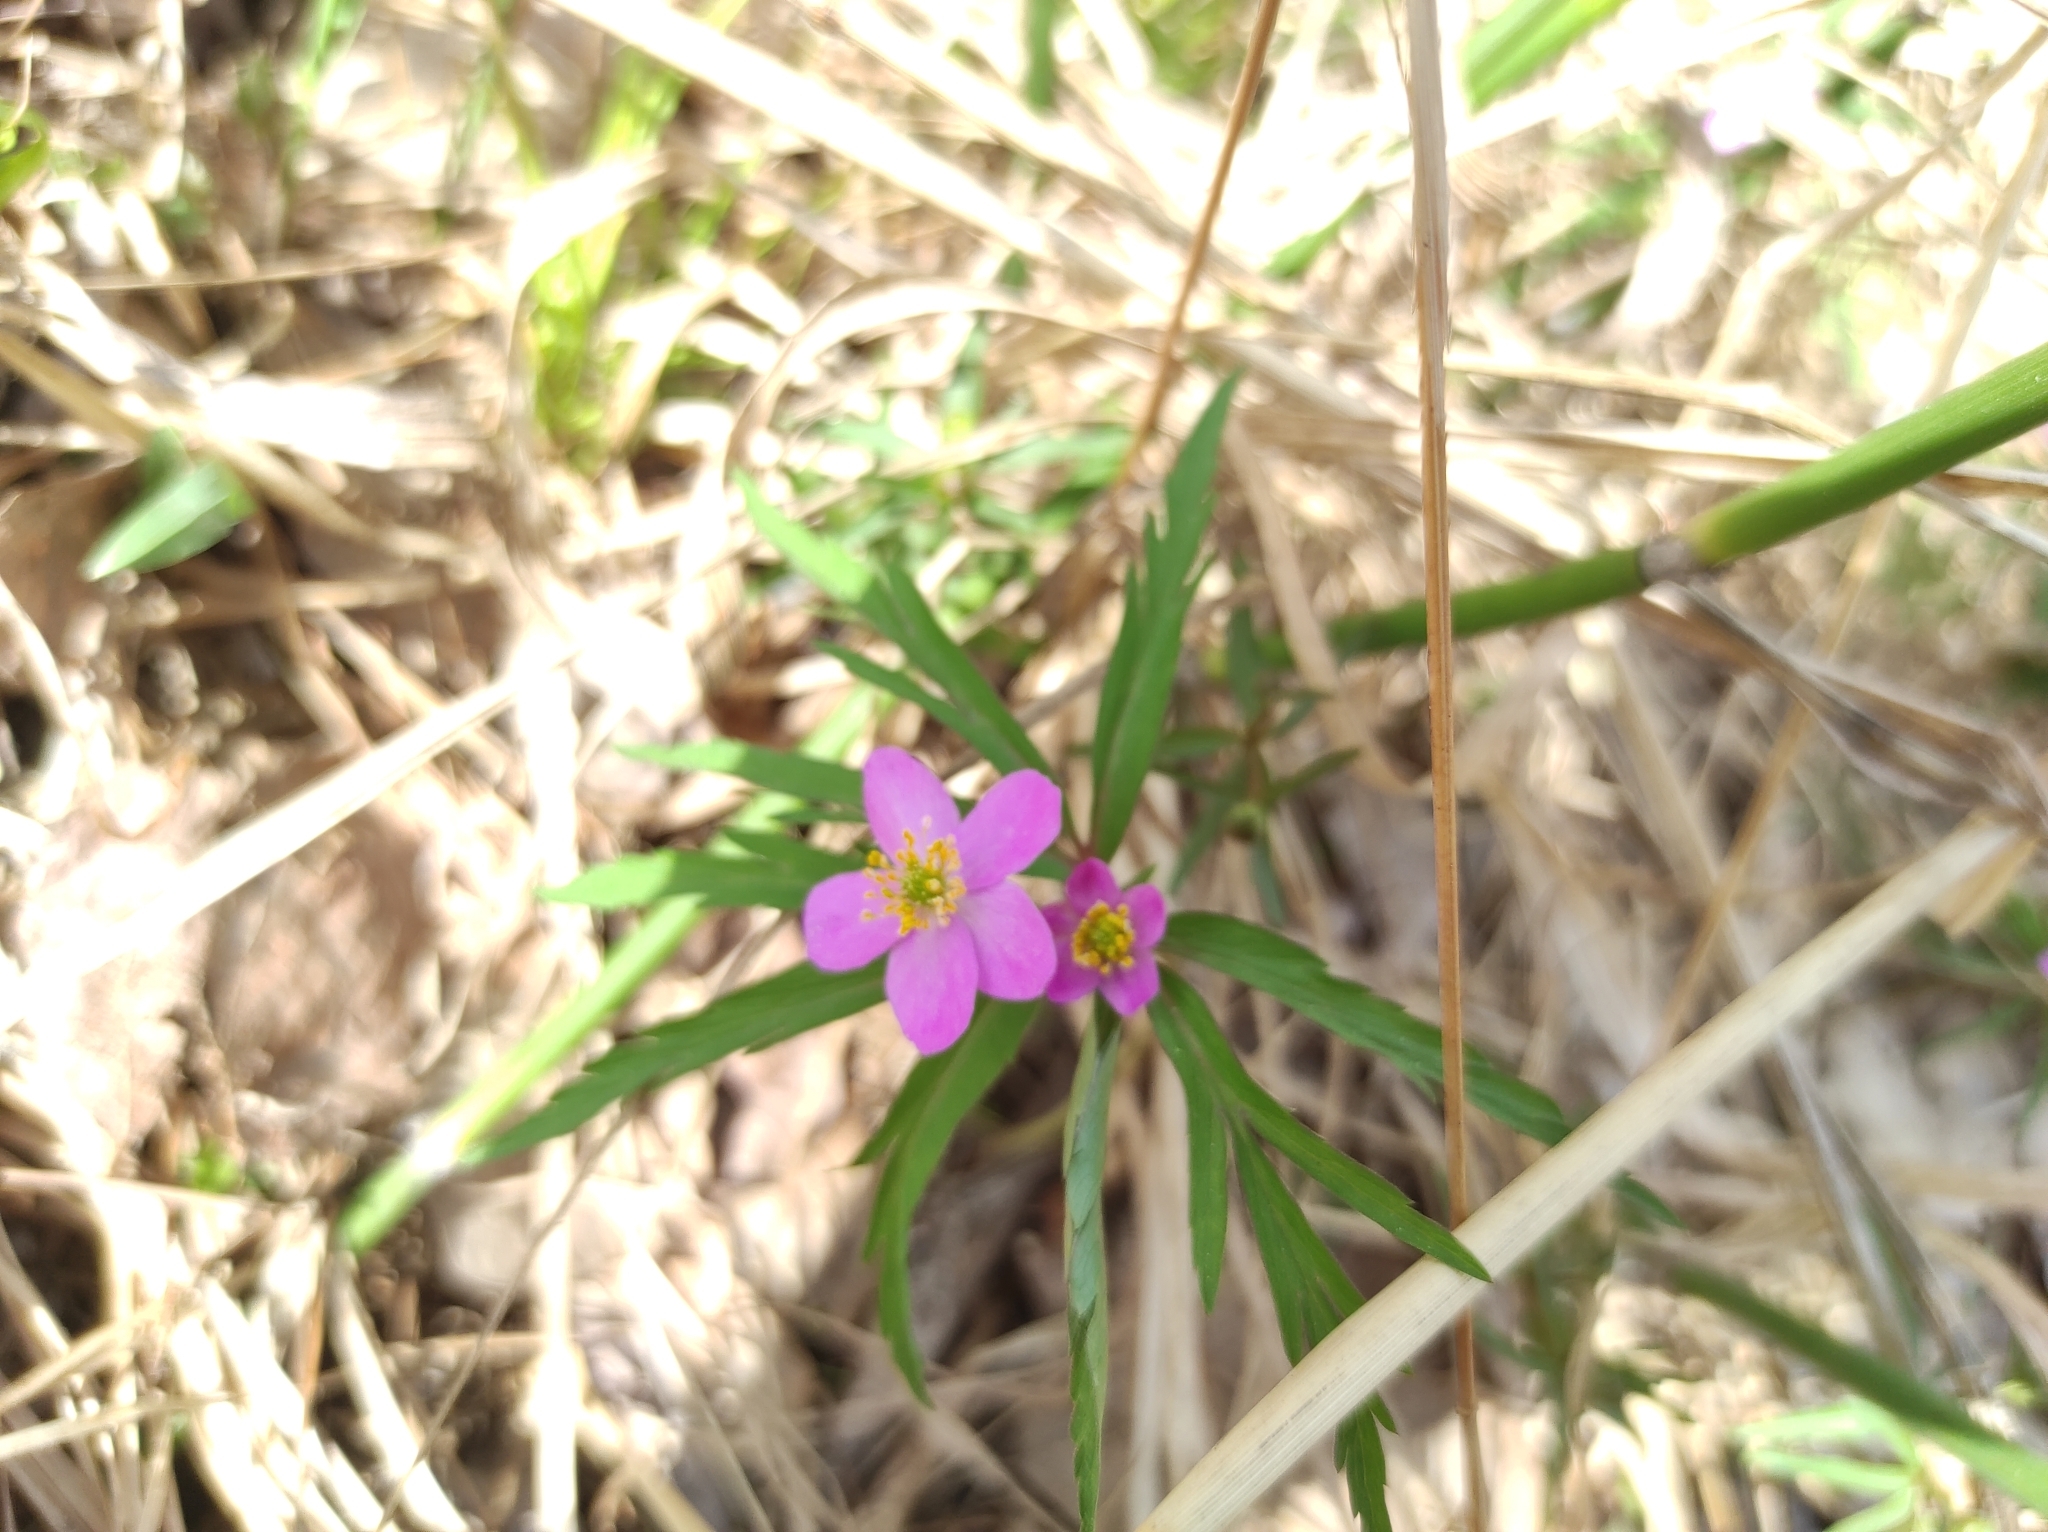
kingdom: Plantae
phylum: Tracheophyta
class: Magnoliopsida
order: Ranunculales
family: Ranunculaceae
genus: Anemone
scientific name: Anemone caerulea
